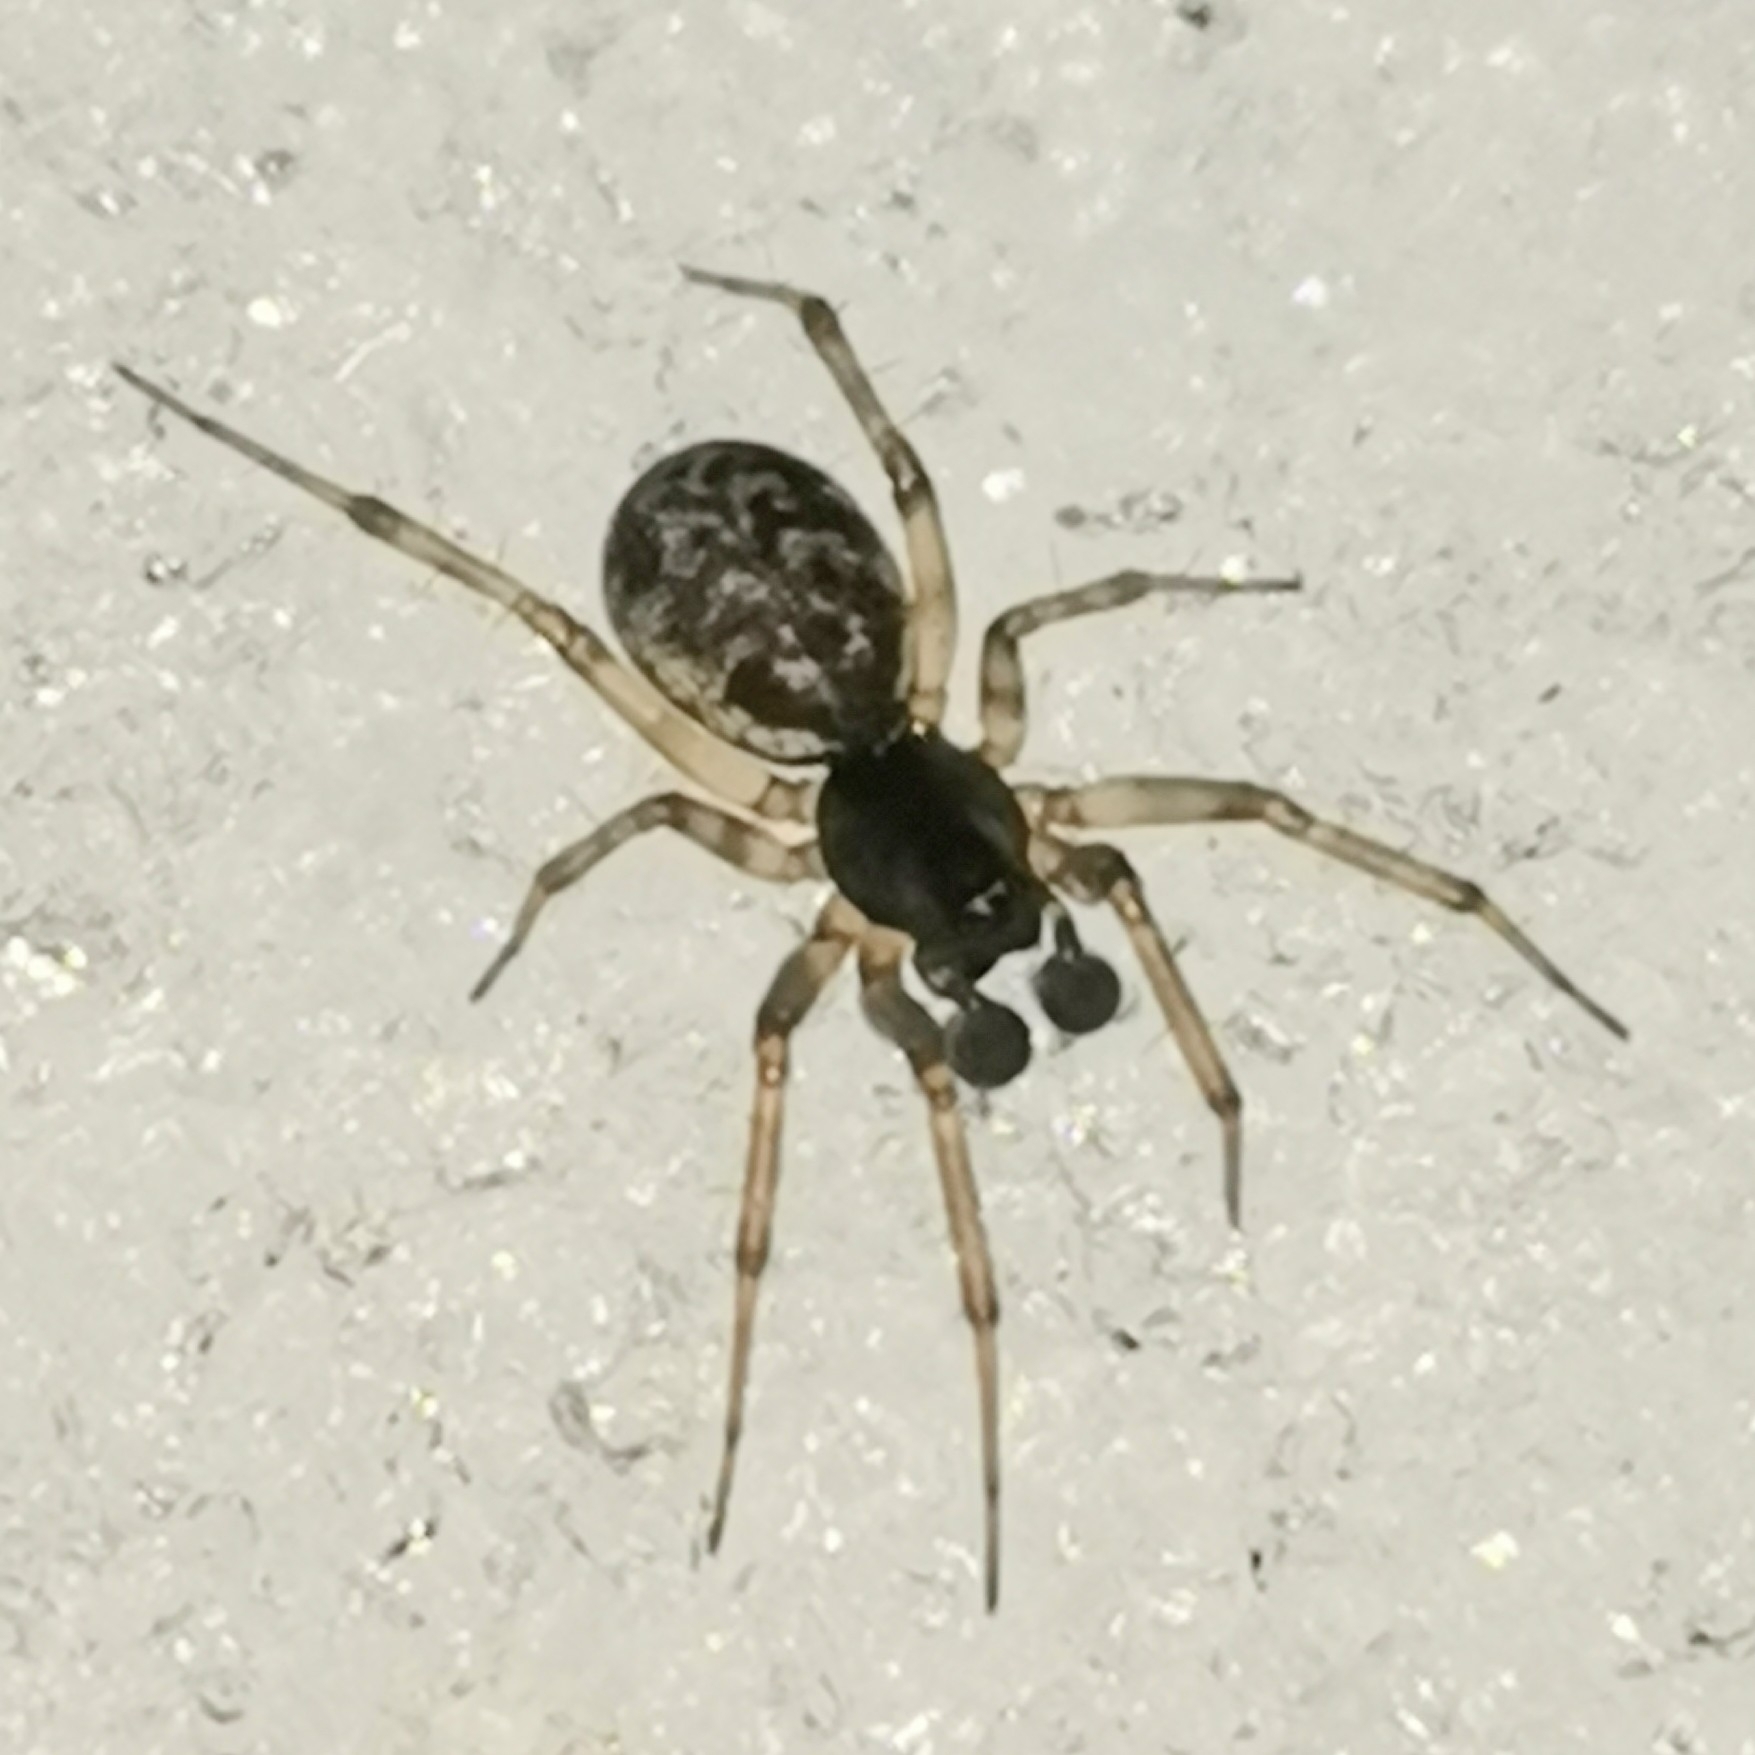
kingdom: Animalia
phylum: Arthropoda
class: Arachnida
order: Araneae
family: Linyphiidae
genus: Neriene
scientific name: Neriene clathrata
